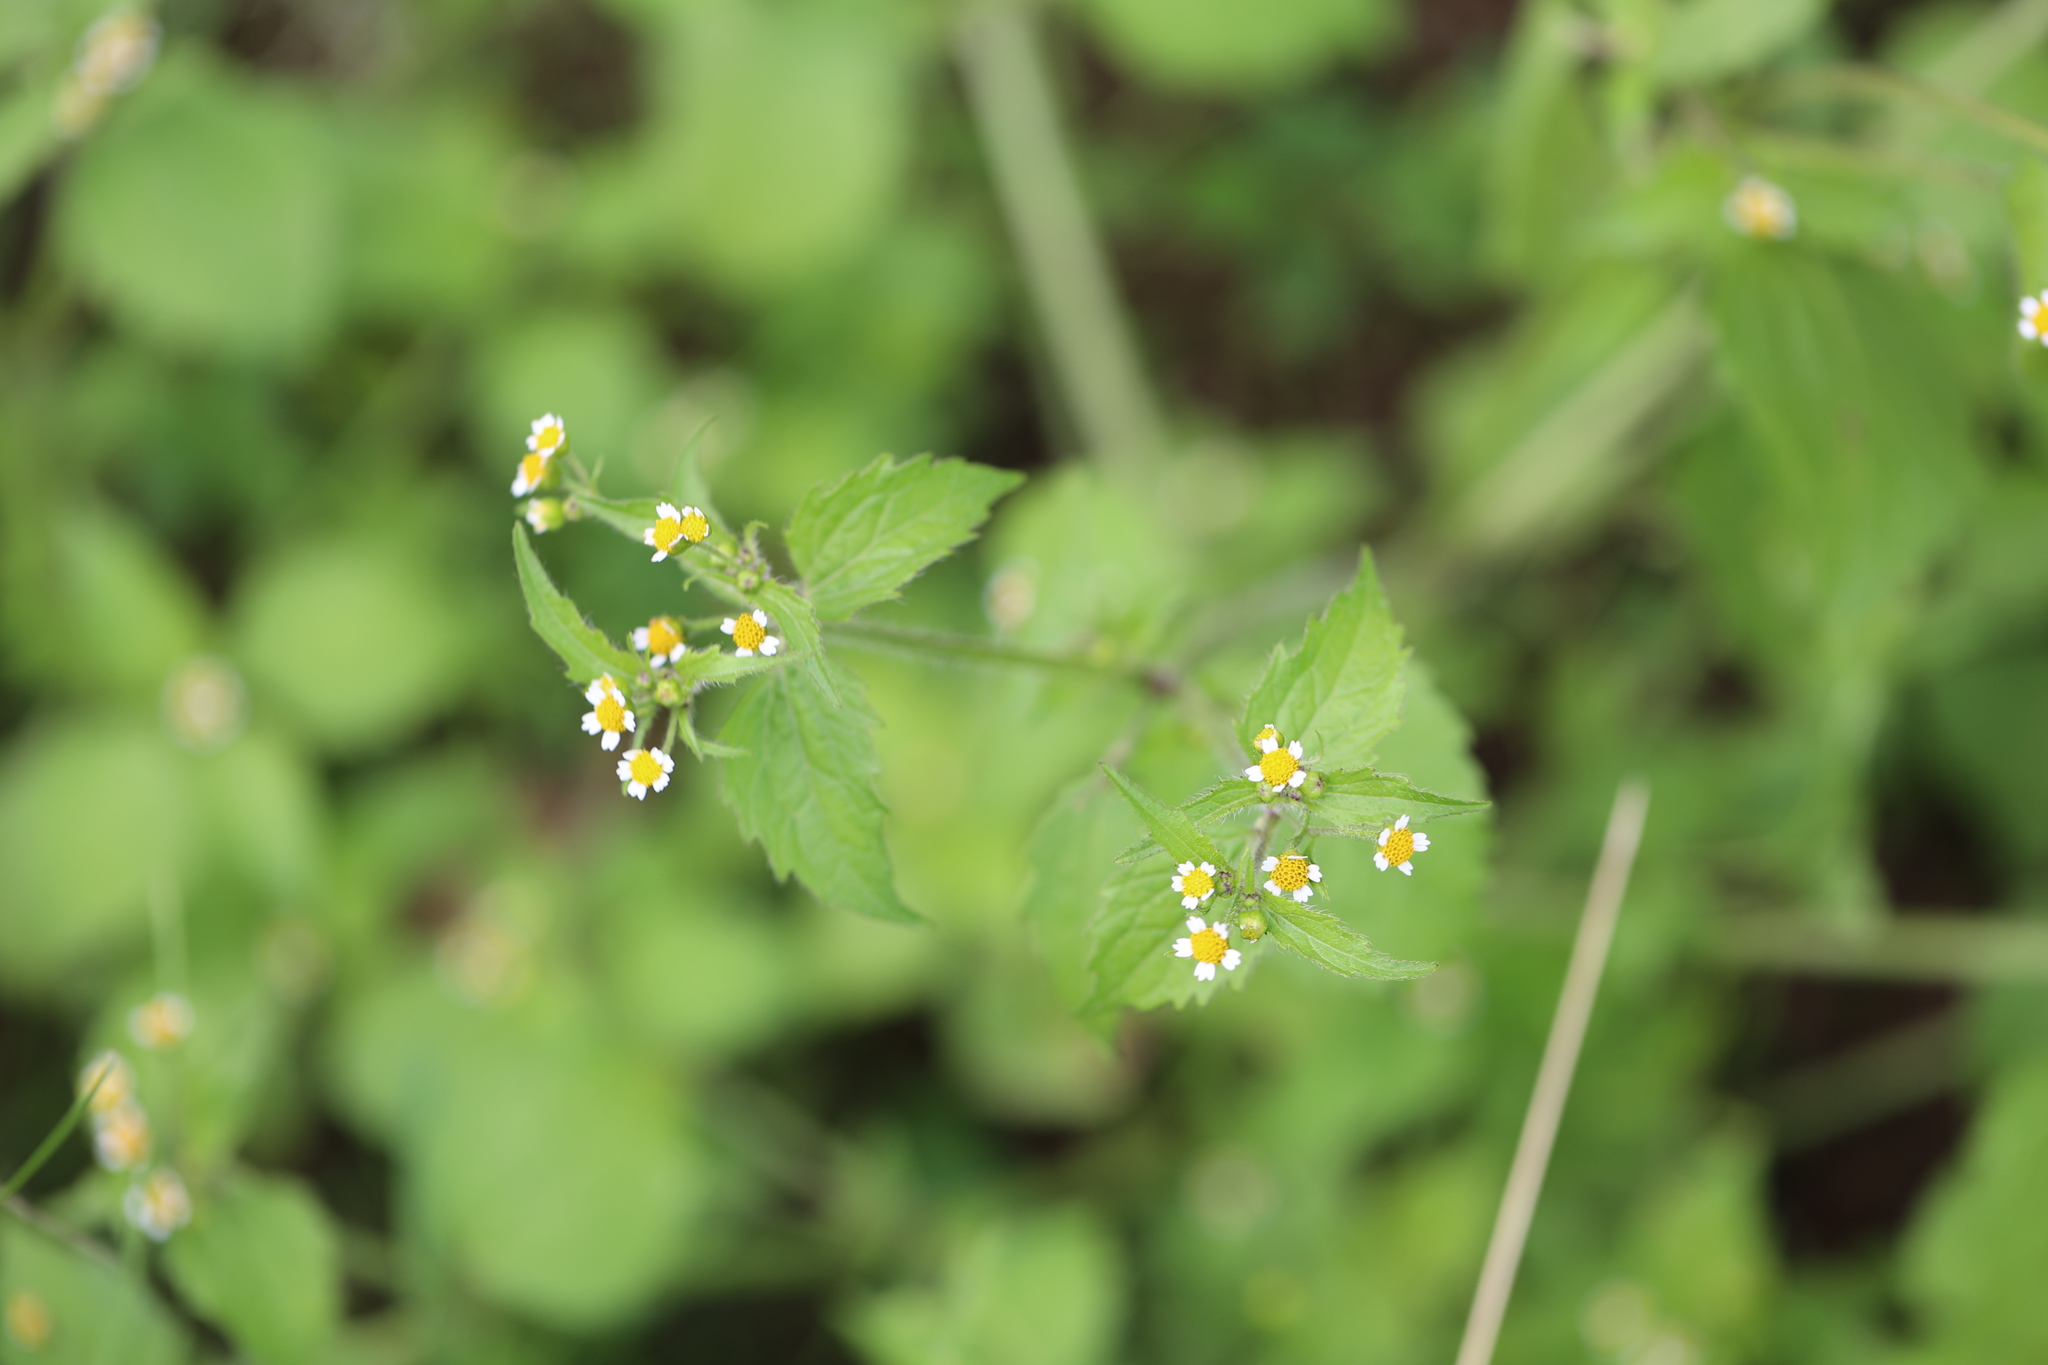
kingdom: Plantae
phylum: Tracheophyta
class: Magnoliopsida
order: Asterales
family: Asteraceae
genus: Galinsoga
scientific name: Galinsoga quadriradiata
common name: Shaggy soldier
